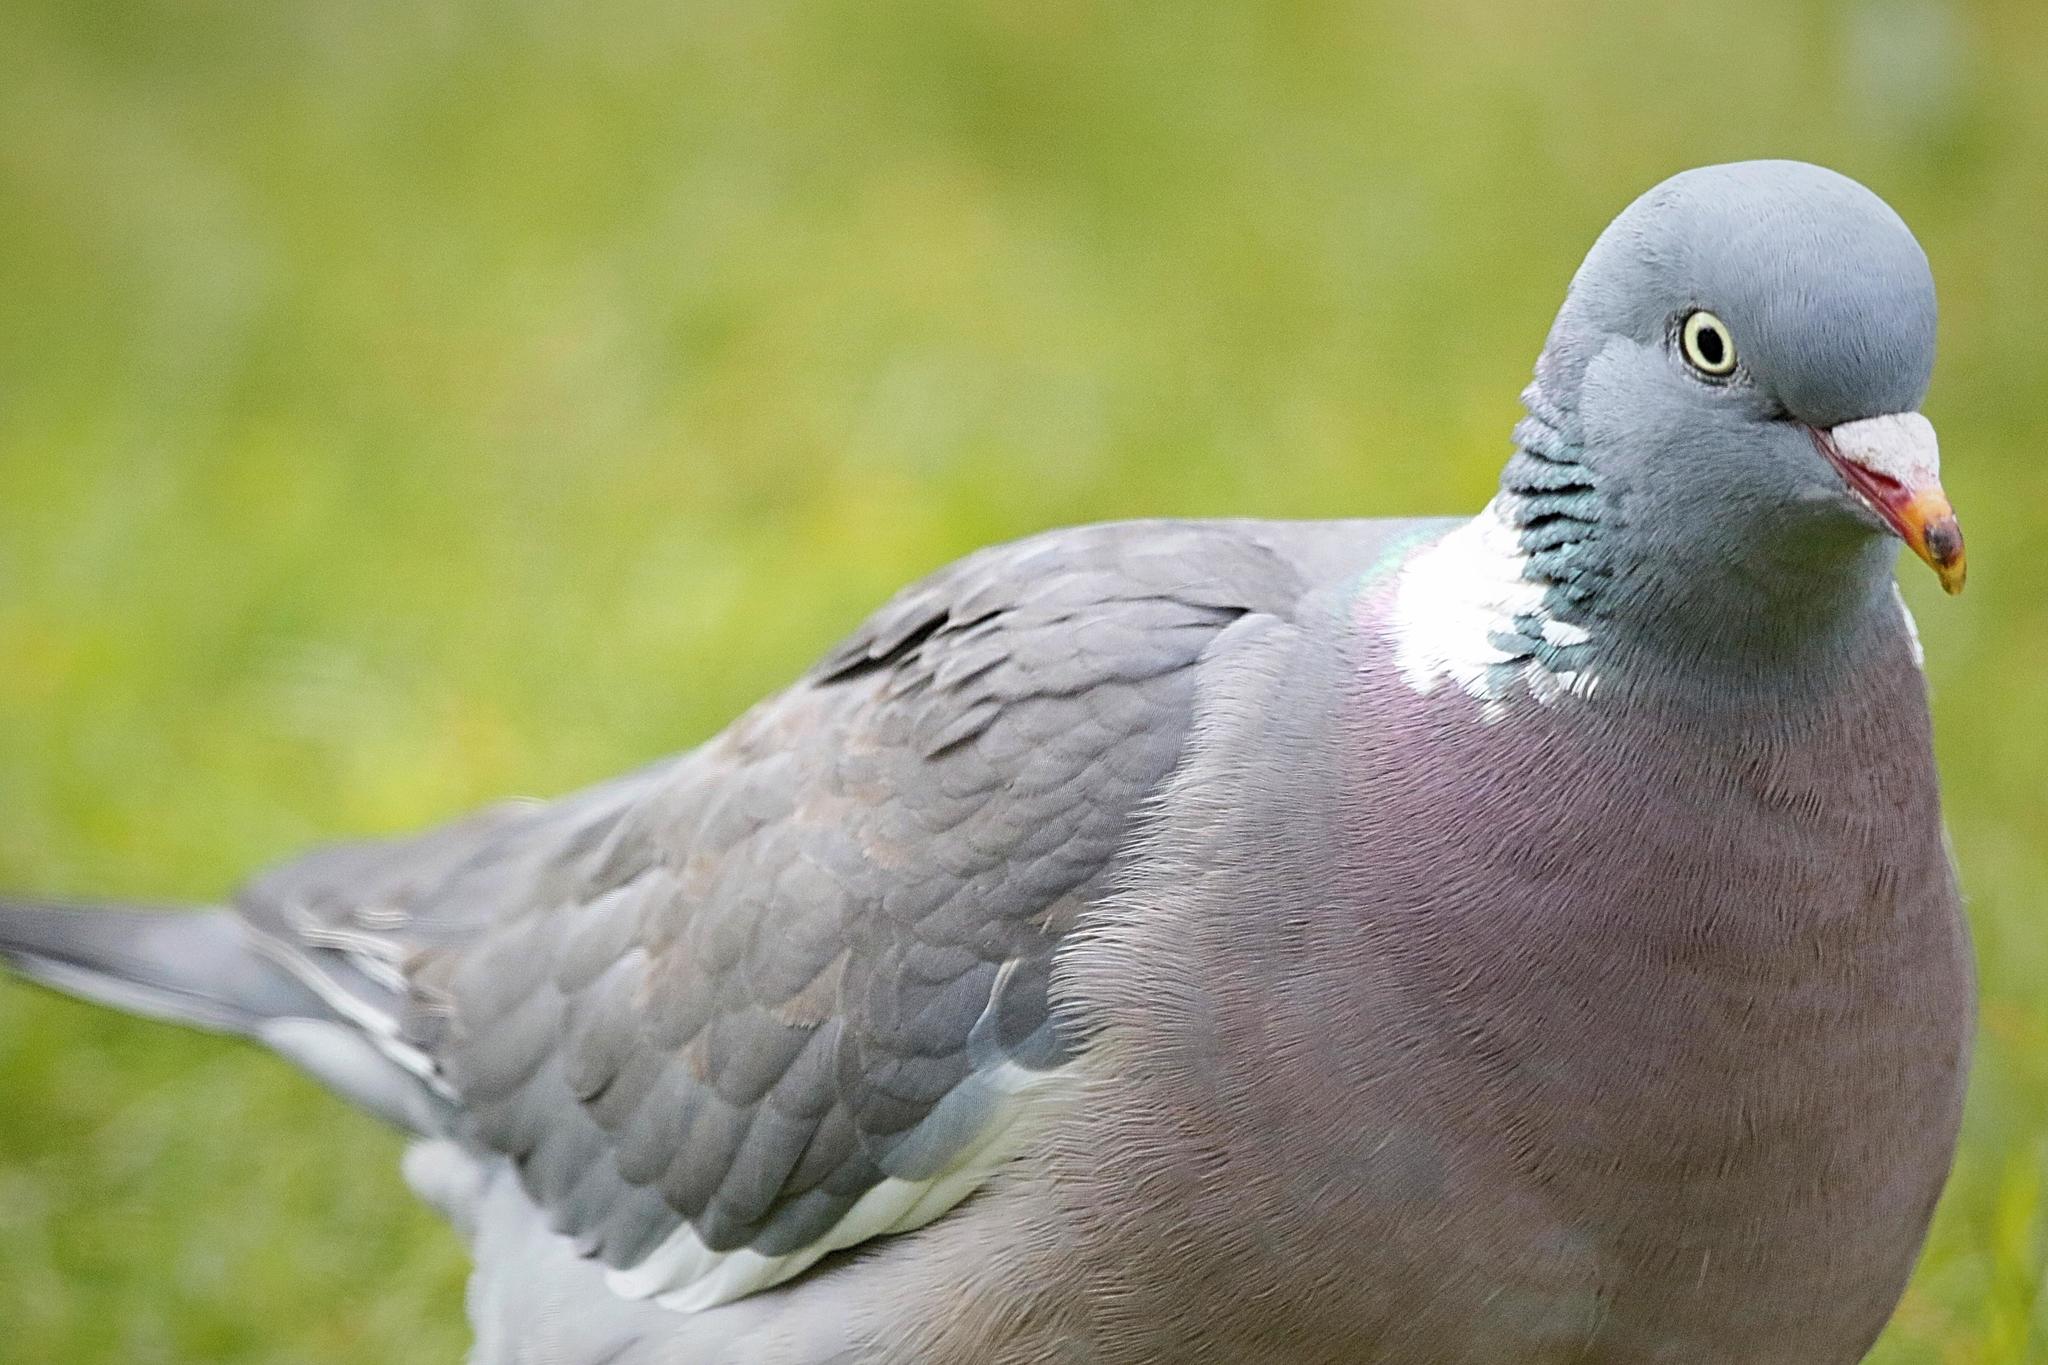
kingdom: Animalia
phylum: Chordata
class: Aves
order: Columbiformes
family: Columbidae
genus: Columba
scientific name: Columba palumbus
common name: Common wood pigeon
